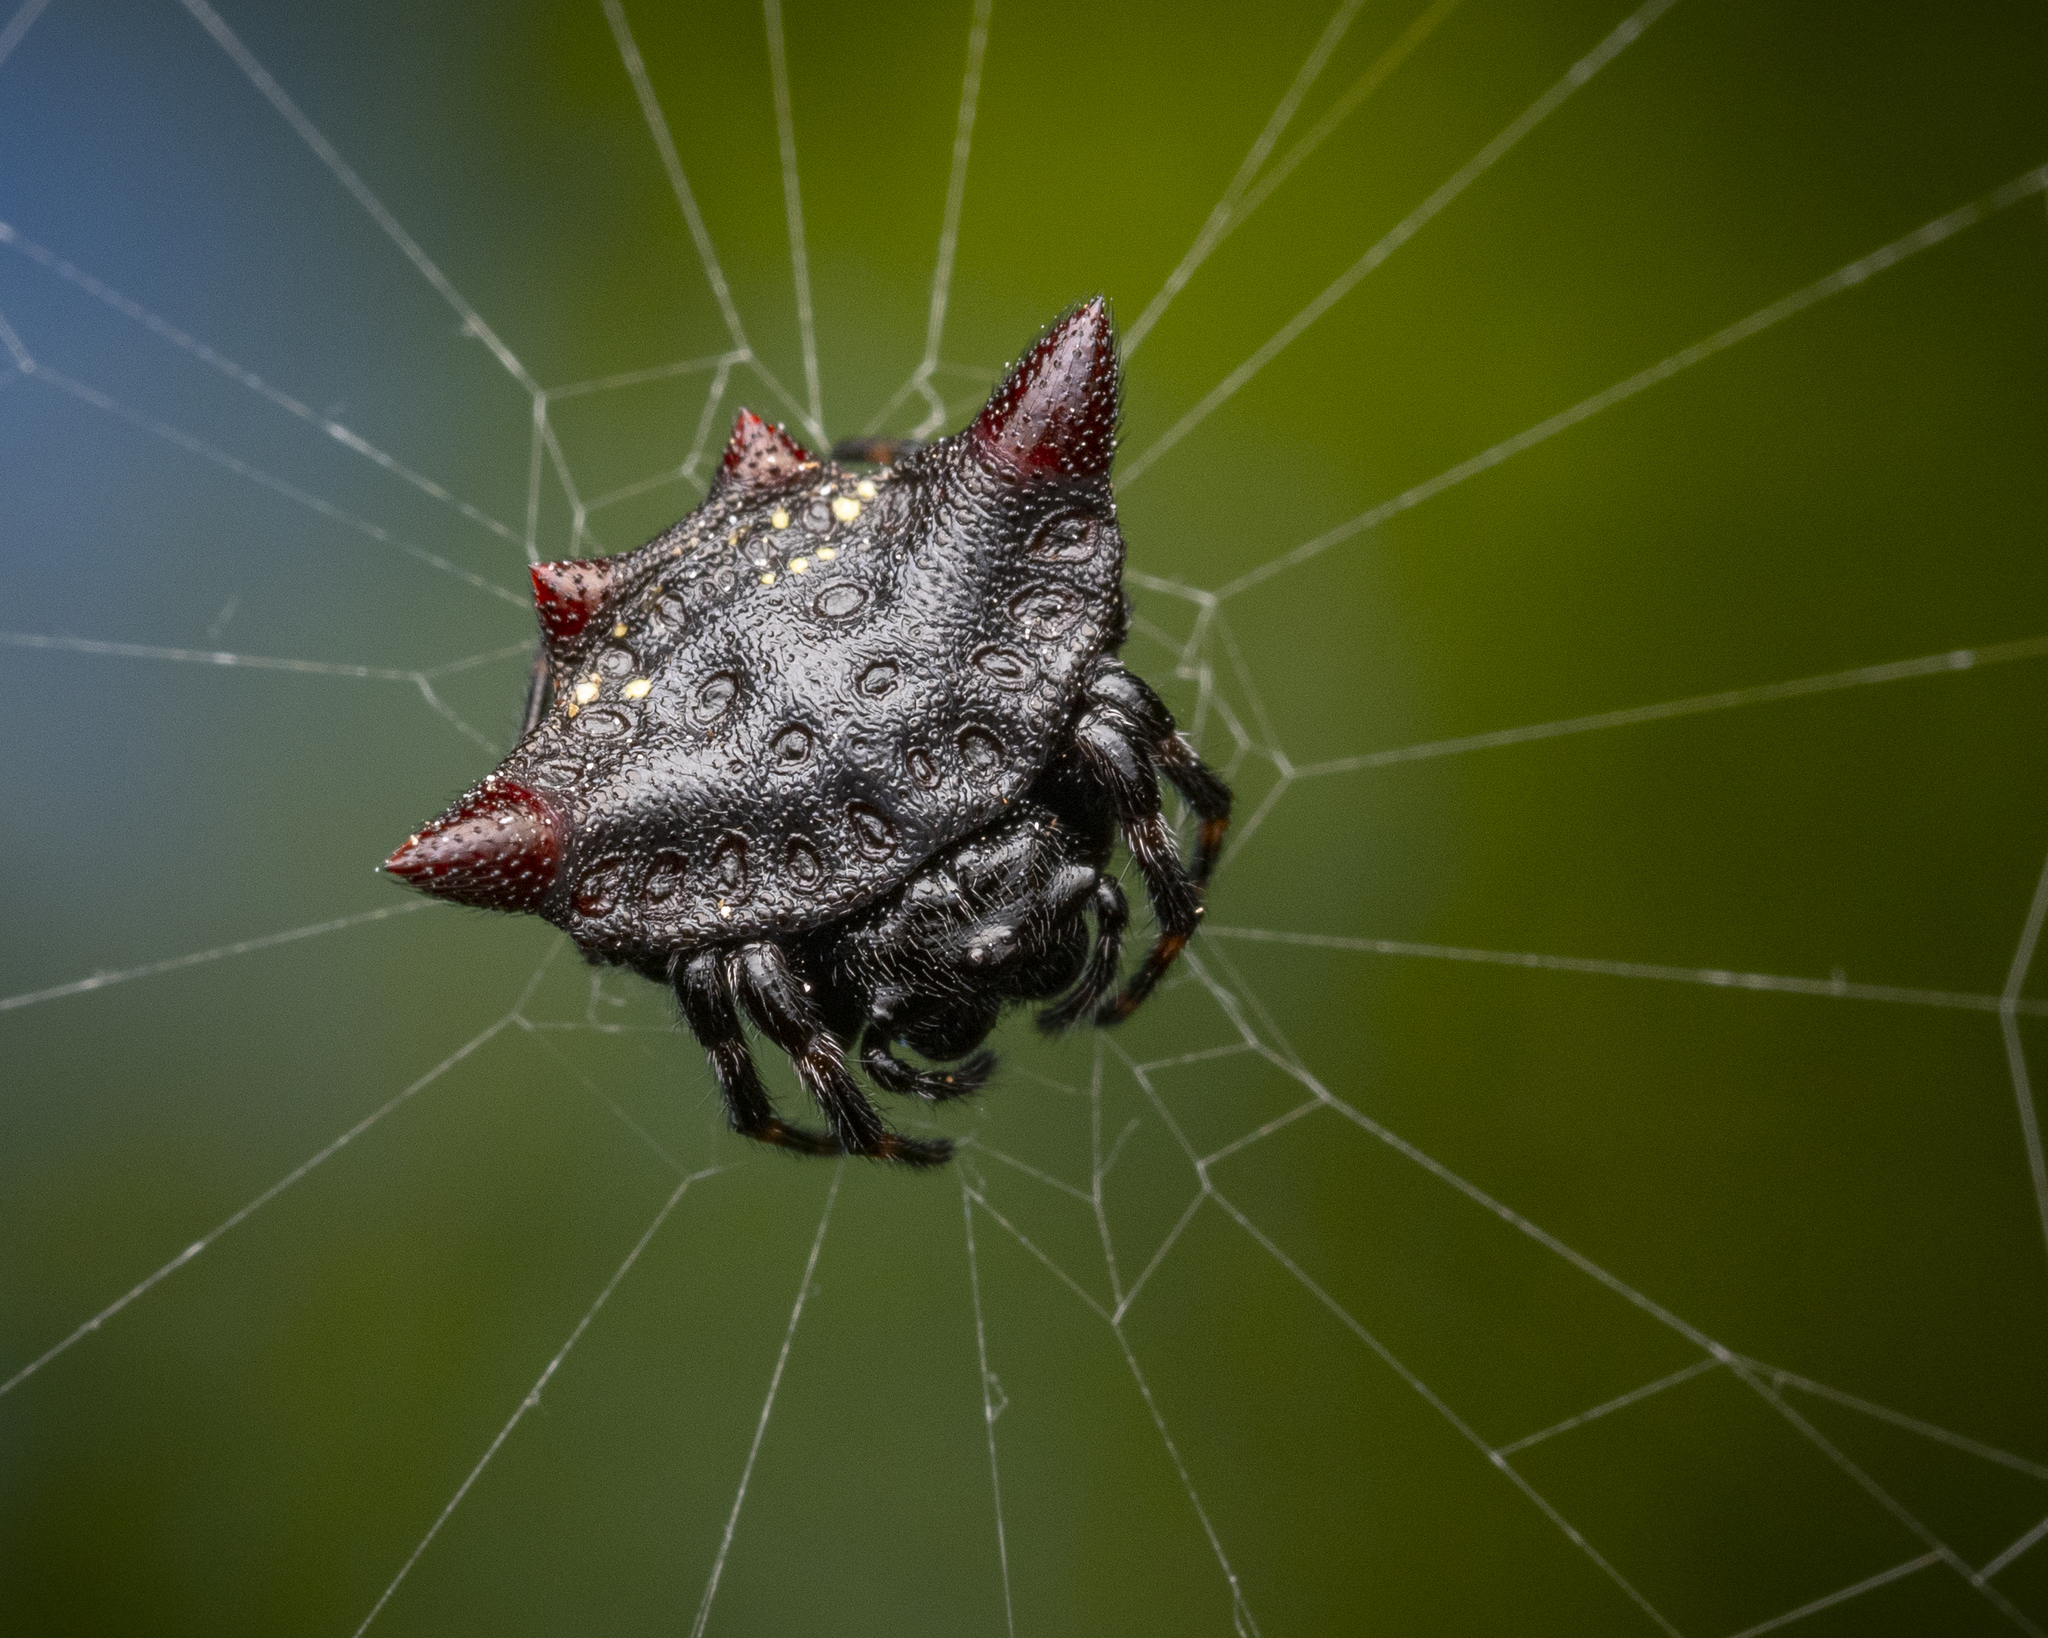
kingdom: Animalia
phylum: Arthropoda
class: Arachnida
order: Araneae
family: Araneidae
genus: Gasteracantha
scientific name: Gasteracantha cancriformis
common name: Orb weavers
